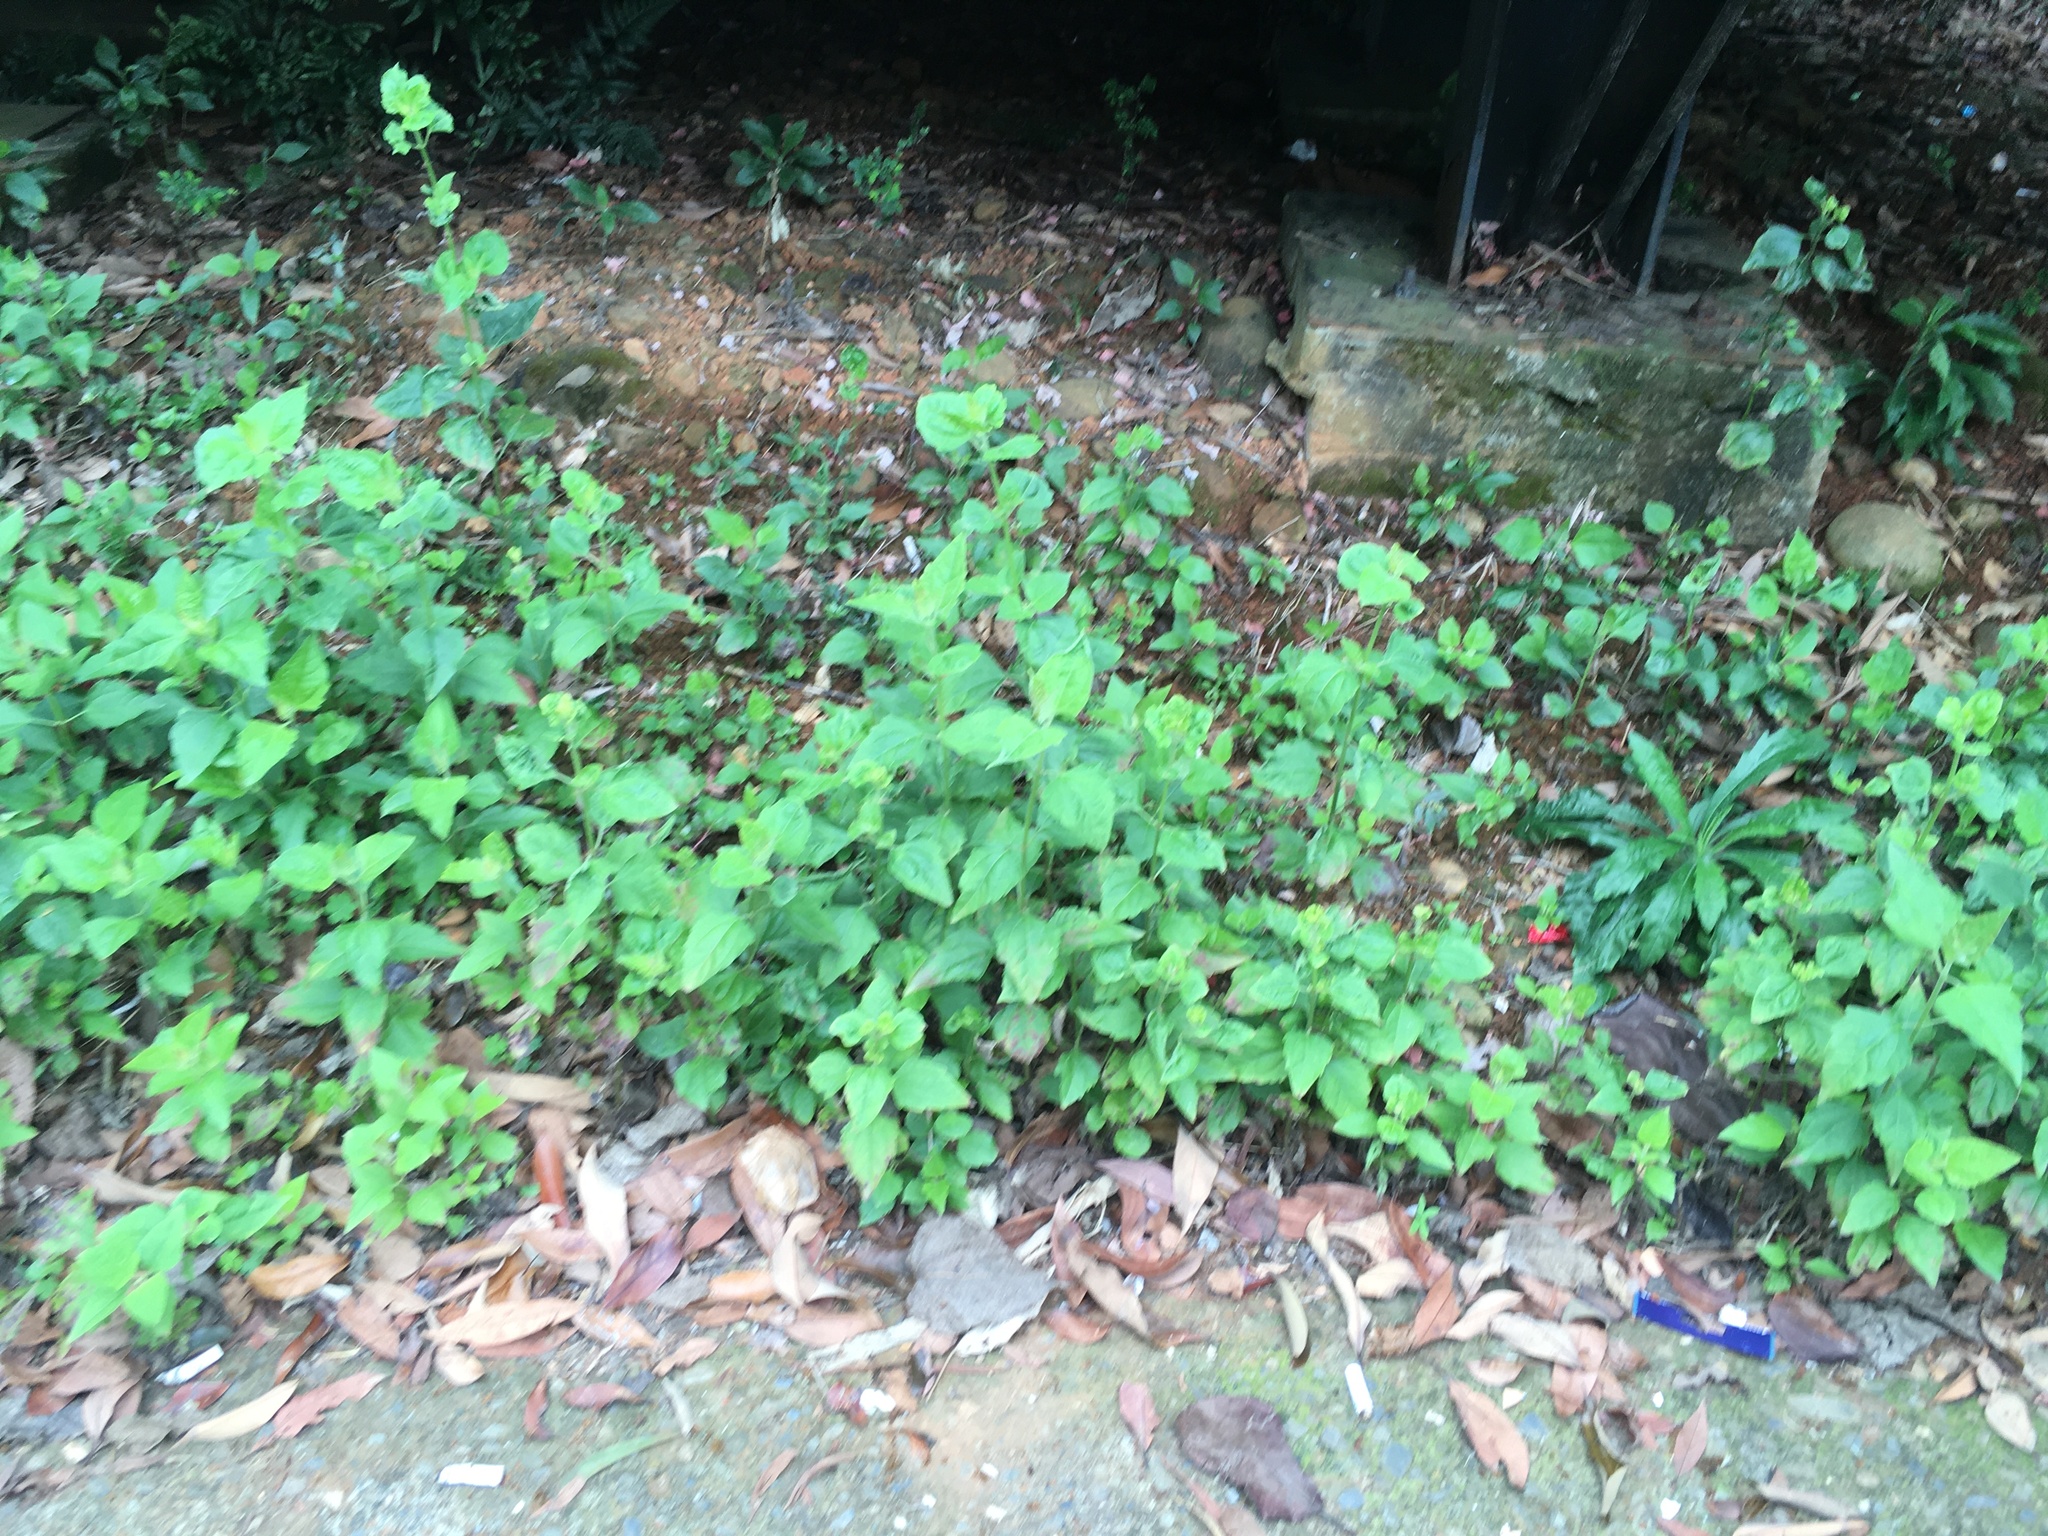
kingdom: Plantae
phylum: Tracheophyta
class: Magnoliopsida
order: Asterales
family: Asteraceae
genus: Chromolaena
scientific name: Chromolaena odorata
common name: Siamweed
